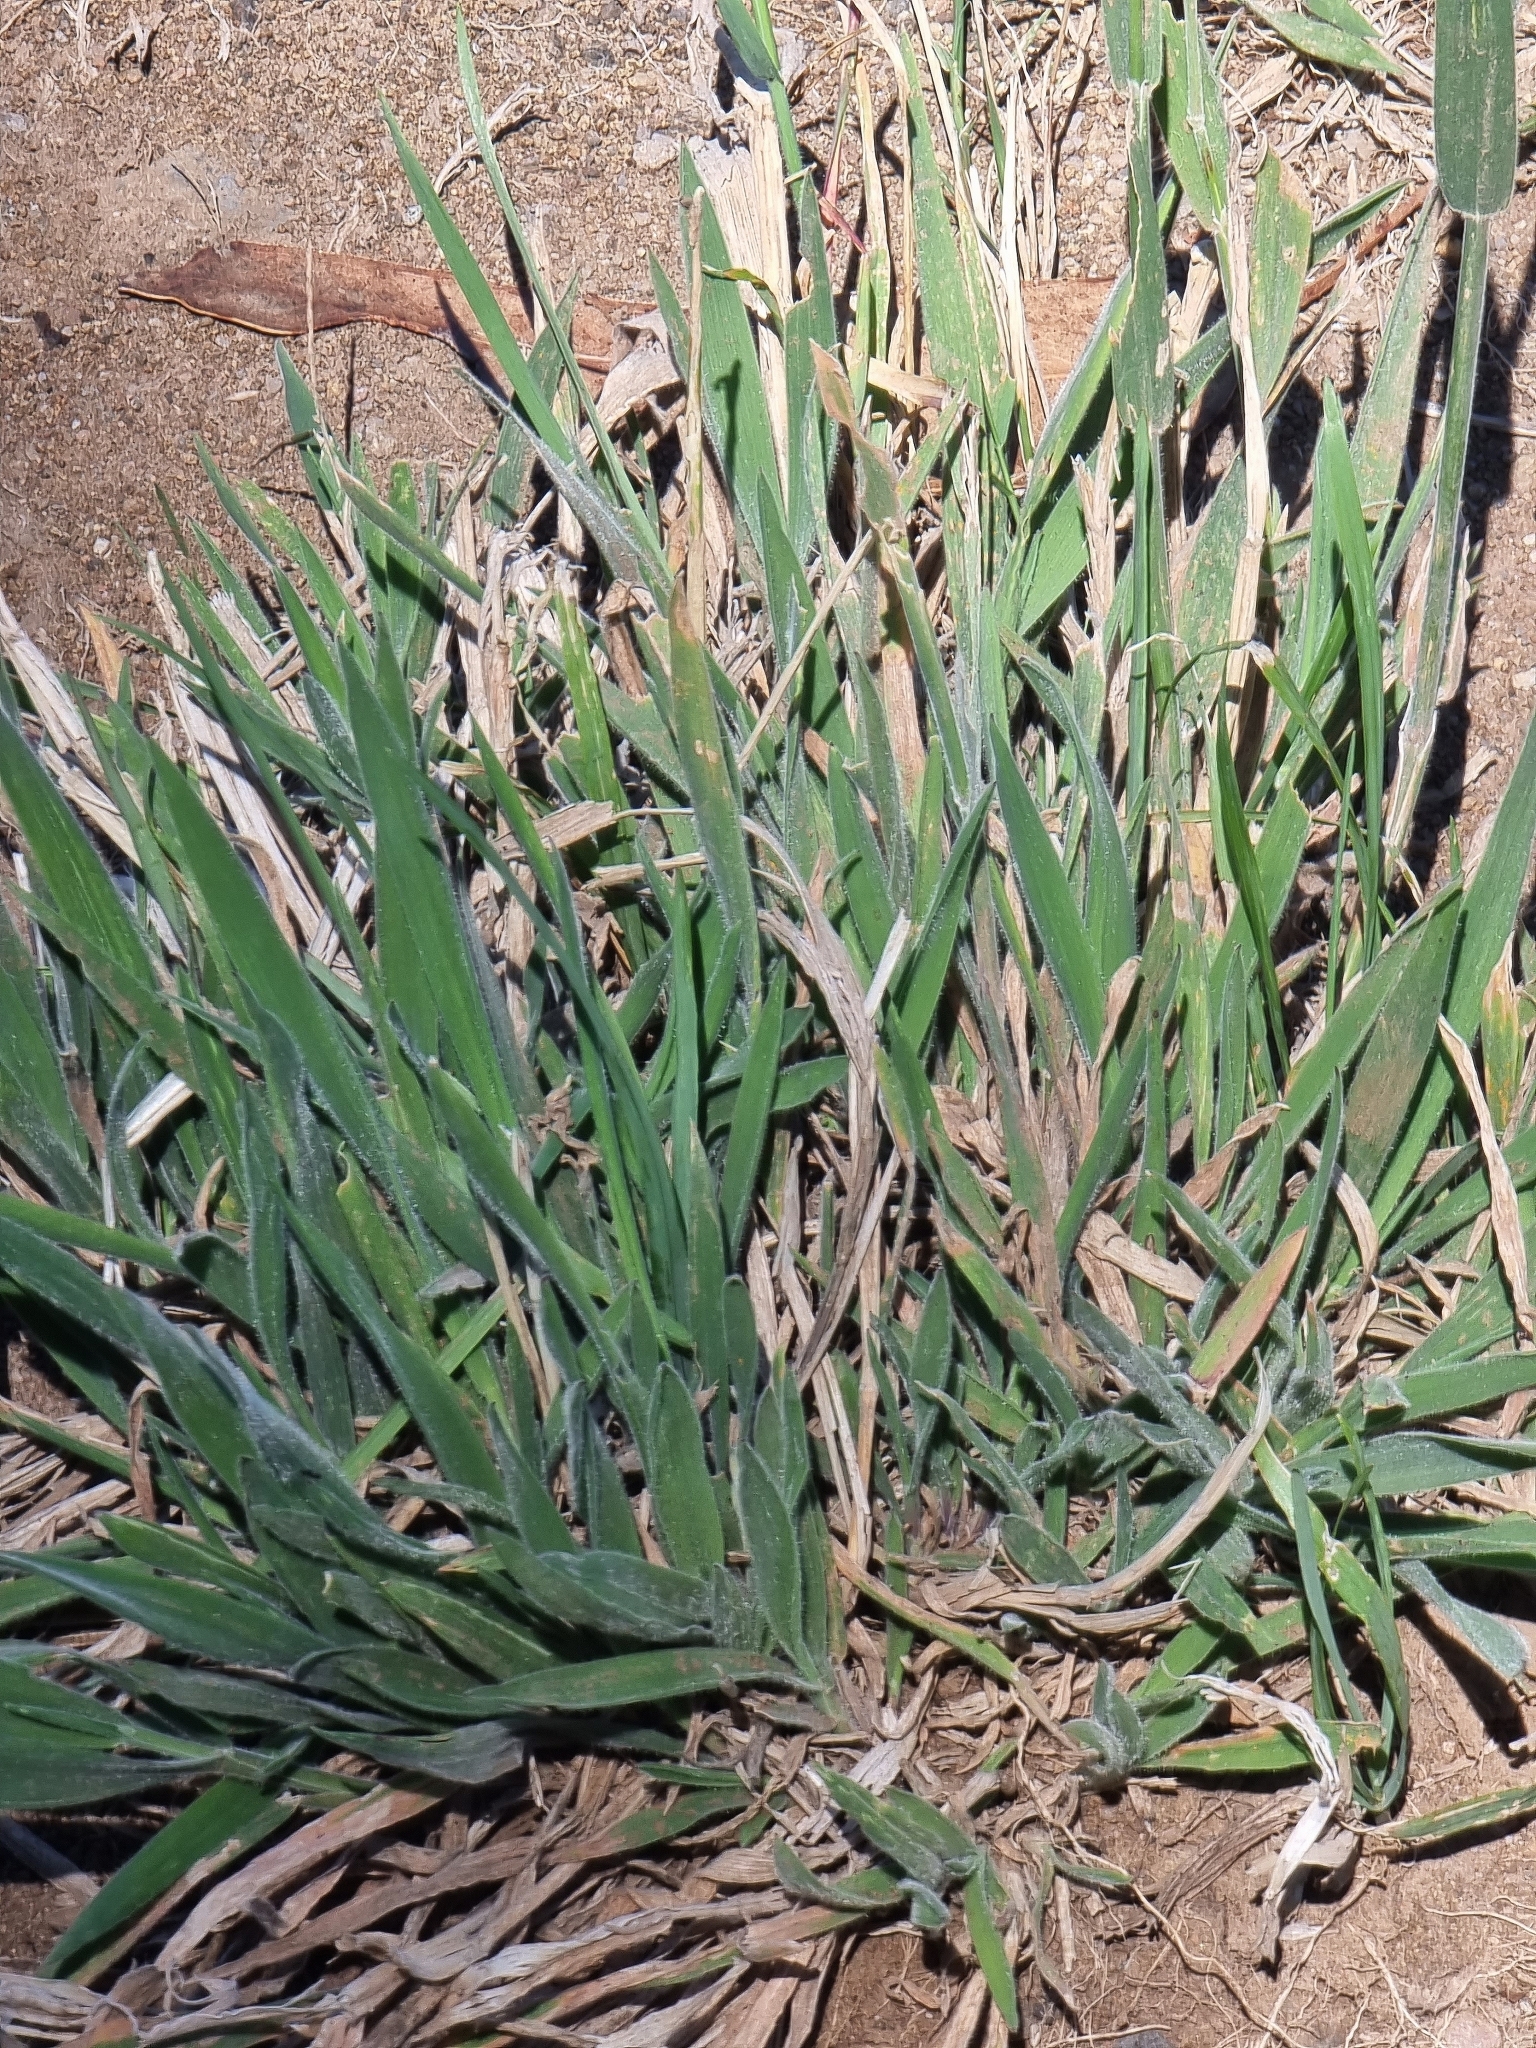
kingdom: Plantae
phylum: Tracheophyta
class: Liliopsida
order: Poales
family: Poaceae
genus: Holcus
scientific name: Holcus lanatus
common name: Yorkshire-fog
